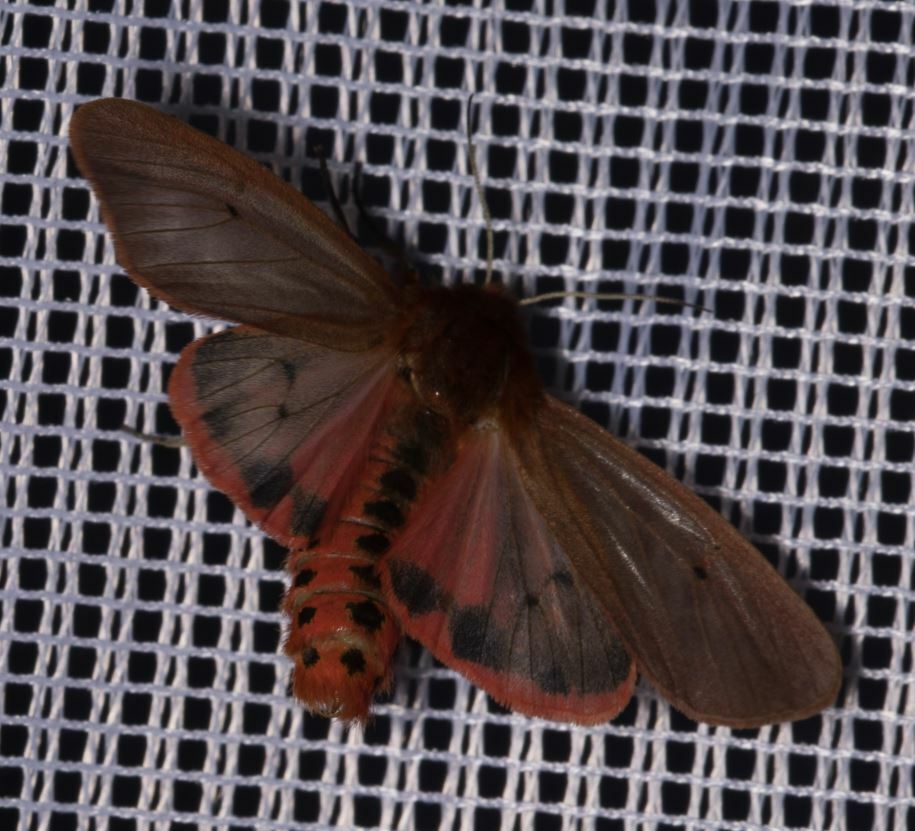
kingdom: Animalia
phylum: Arthropoda
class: Insecta
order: Lepidoptera
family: Erebidae
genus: Phragmatobia
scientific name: Phragmatobia fuliginosa
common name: Ruby tiger
